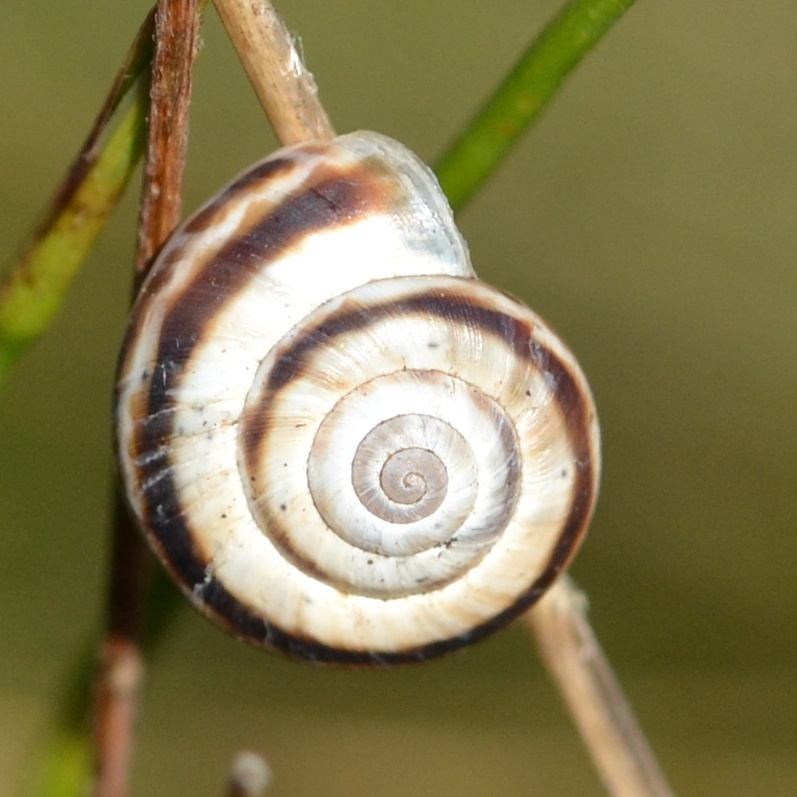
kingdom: Animalia
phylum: Mollusca
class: Gastropoda
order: Stylommatophora
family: Geomitridae
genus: Xerolenta
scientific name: Xerolenta obvia
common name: White heath snail
